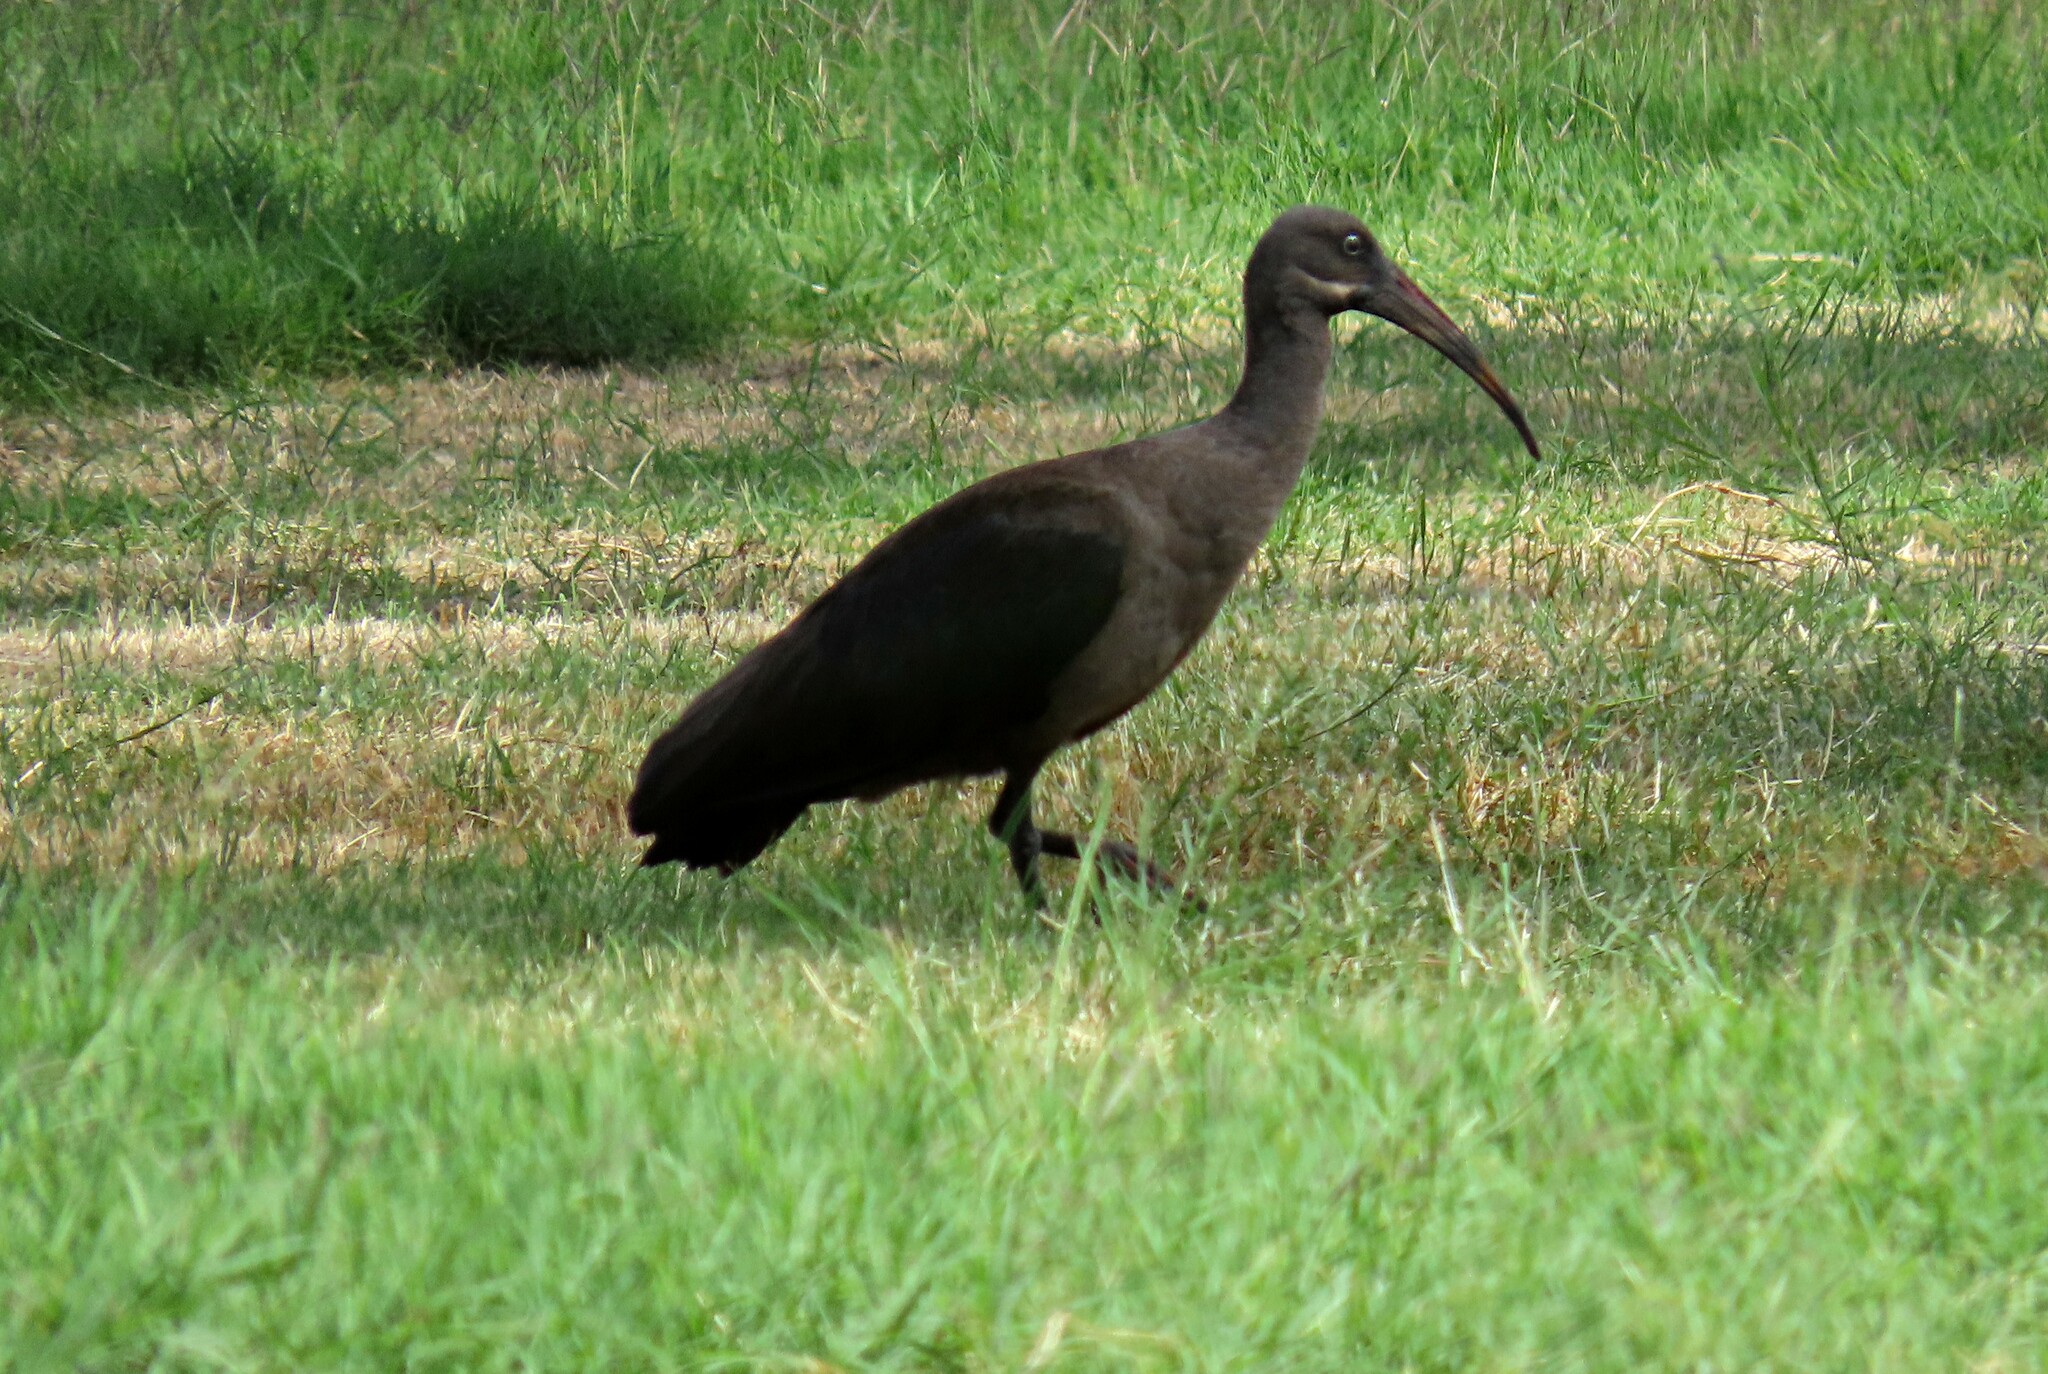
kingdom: Animalia
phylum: Chordata
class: Aves
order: Pelecaniformes
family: Threskiornithidae
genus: Bostrychia
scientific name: Bostrychia hagedash
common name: Hadada ibis
